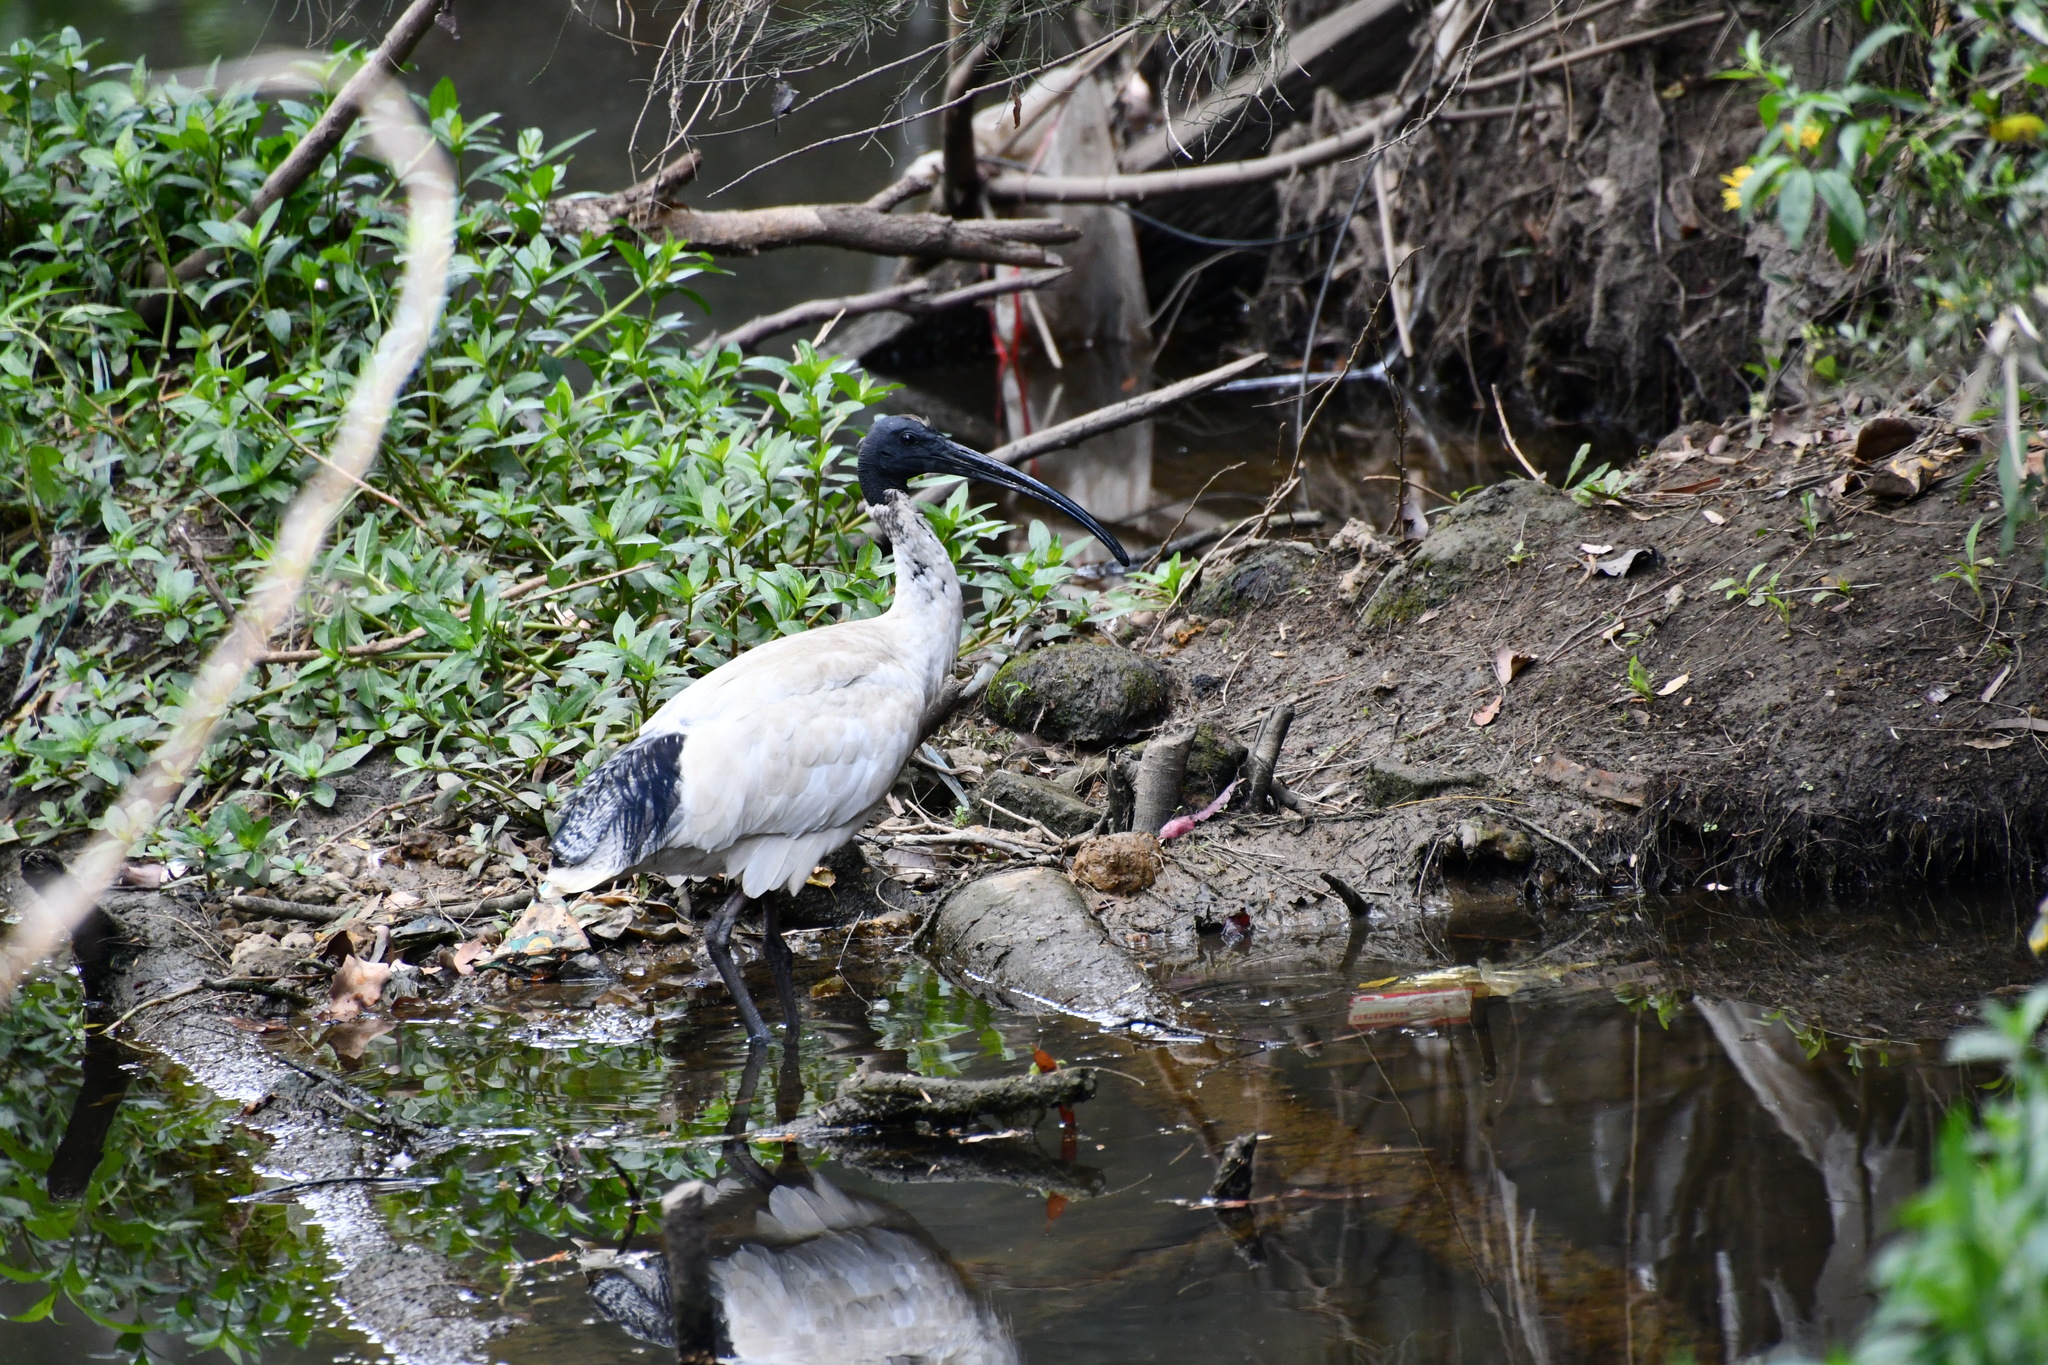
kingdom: Animalia
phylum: Chordata
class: Aves
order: Pelecaniformes
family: Threskiornithidae
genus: Threskiornis
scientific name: Threskiornis molucca
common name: Australian white ibis
